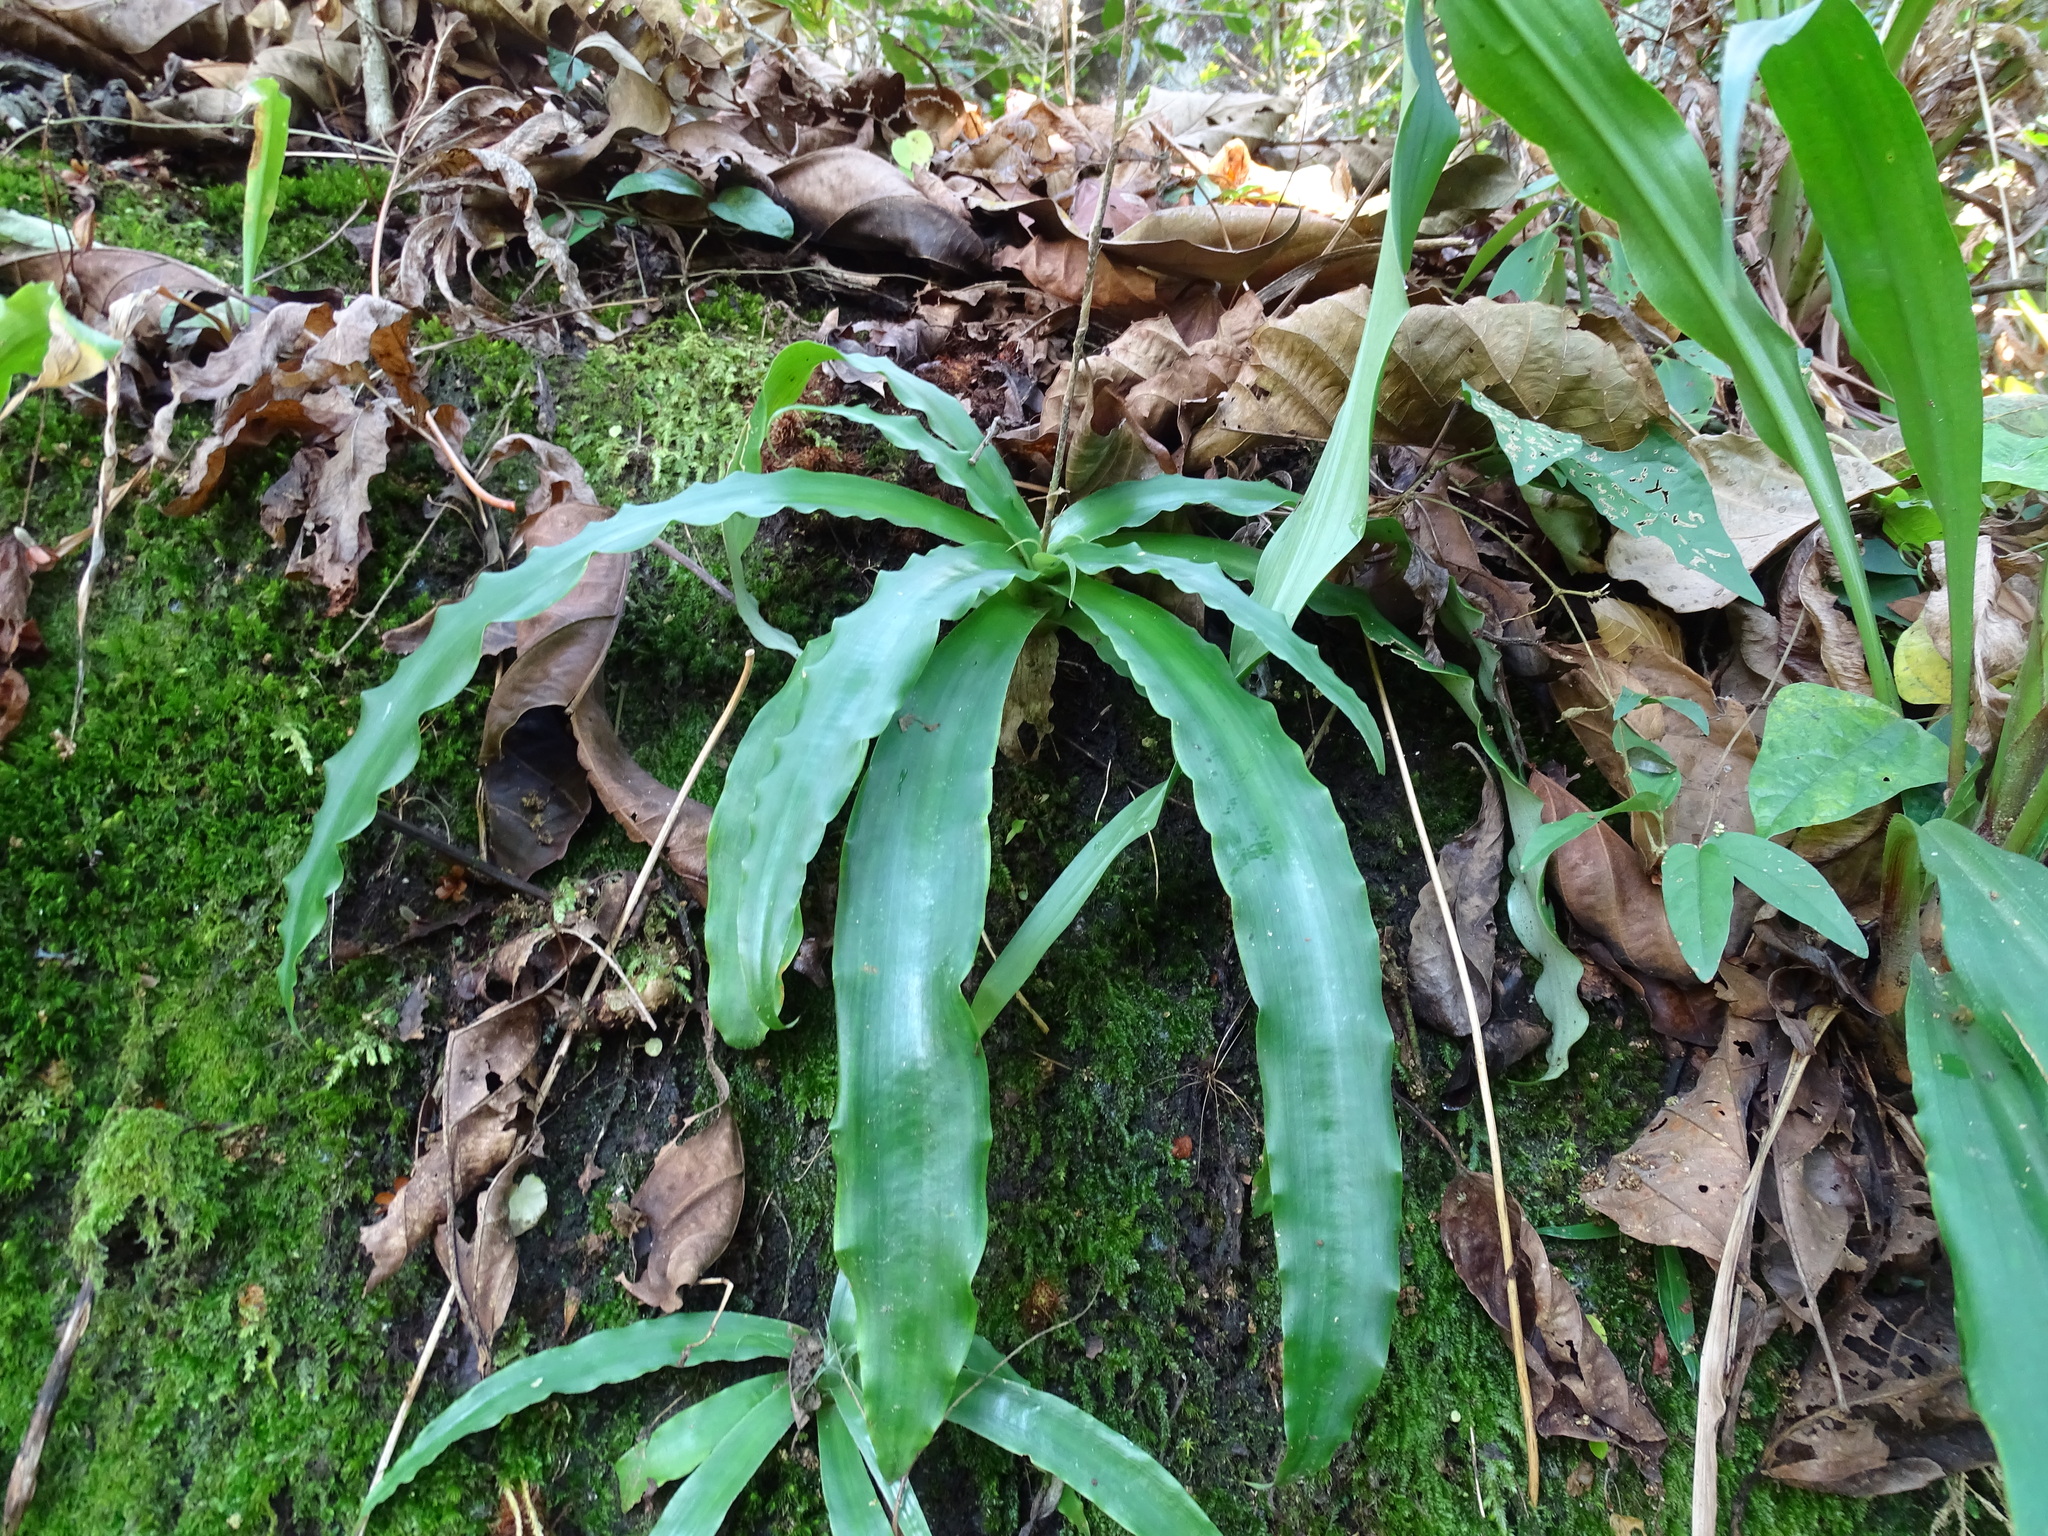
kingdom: Plantae
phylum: Tracheophyta
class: Liliopsida
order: Poales
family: Bromeliaceae
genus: Fosterella
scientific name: Fosterella micrantha
